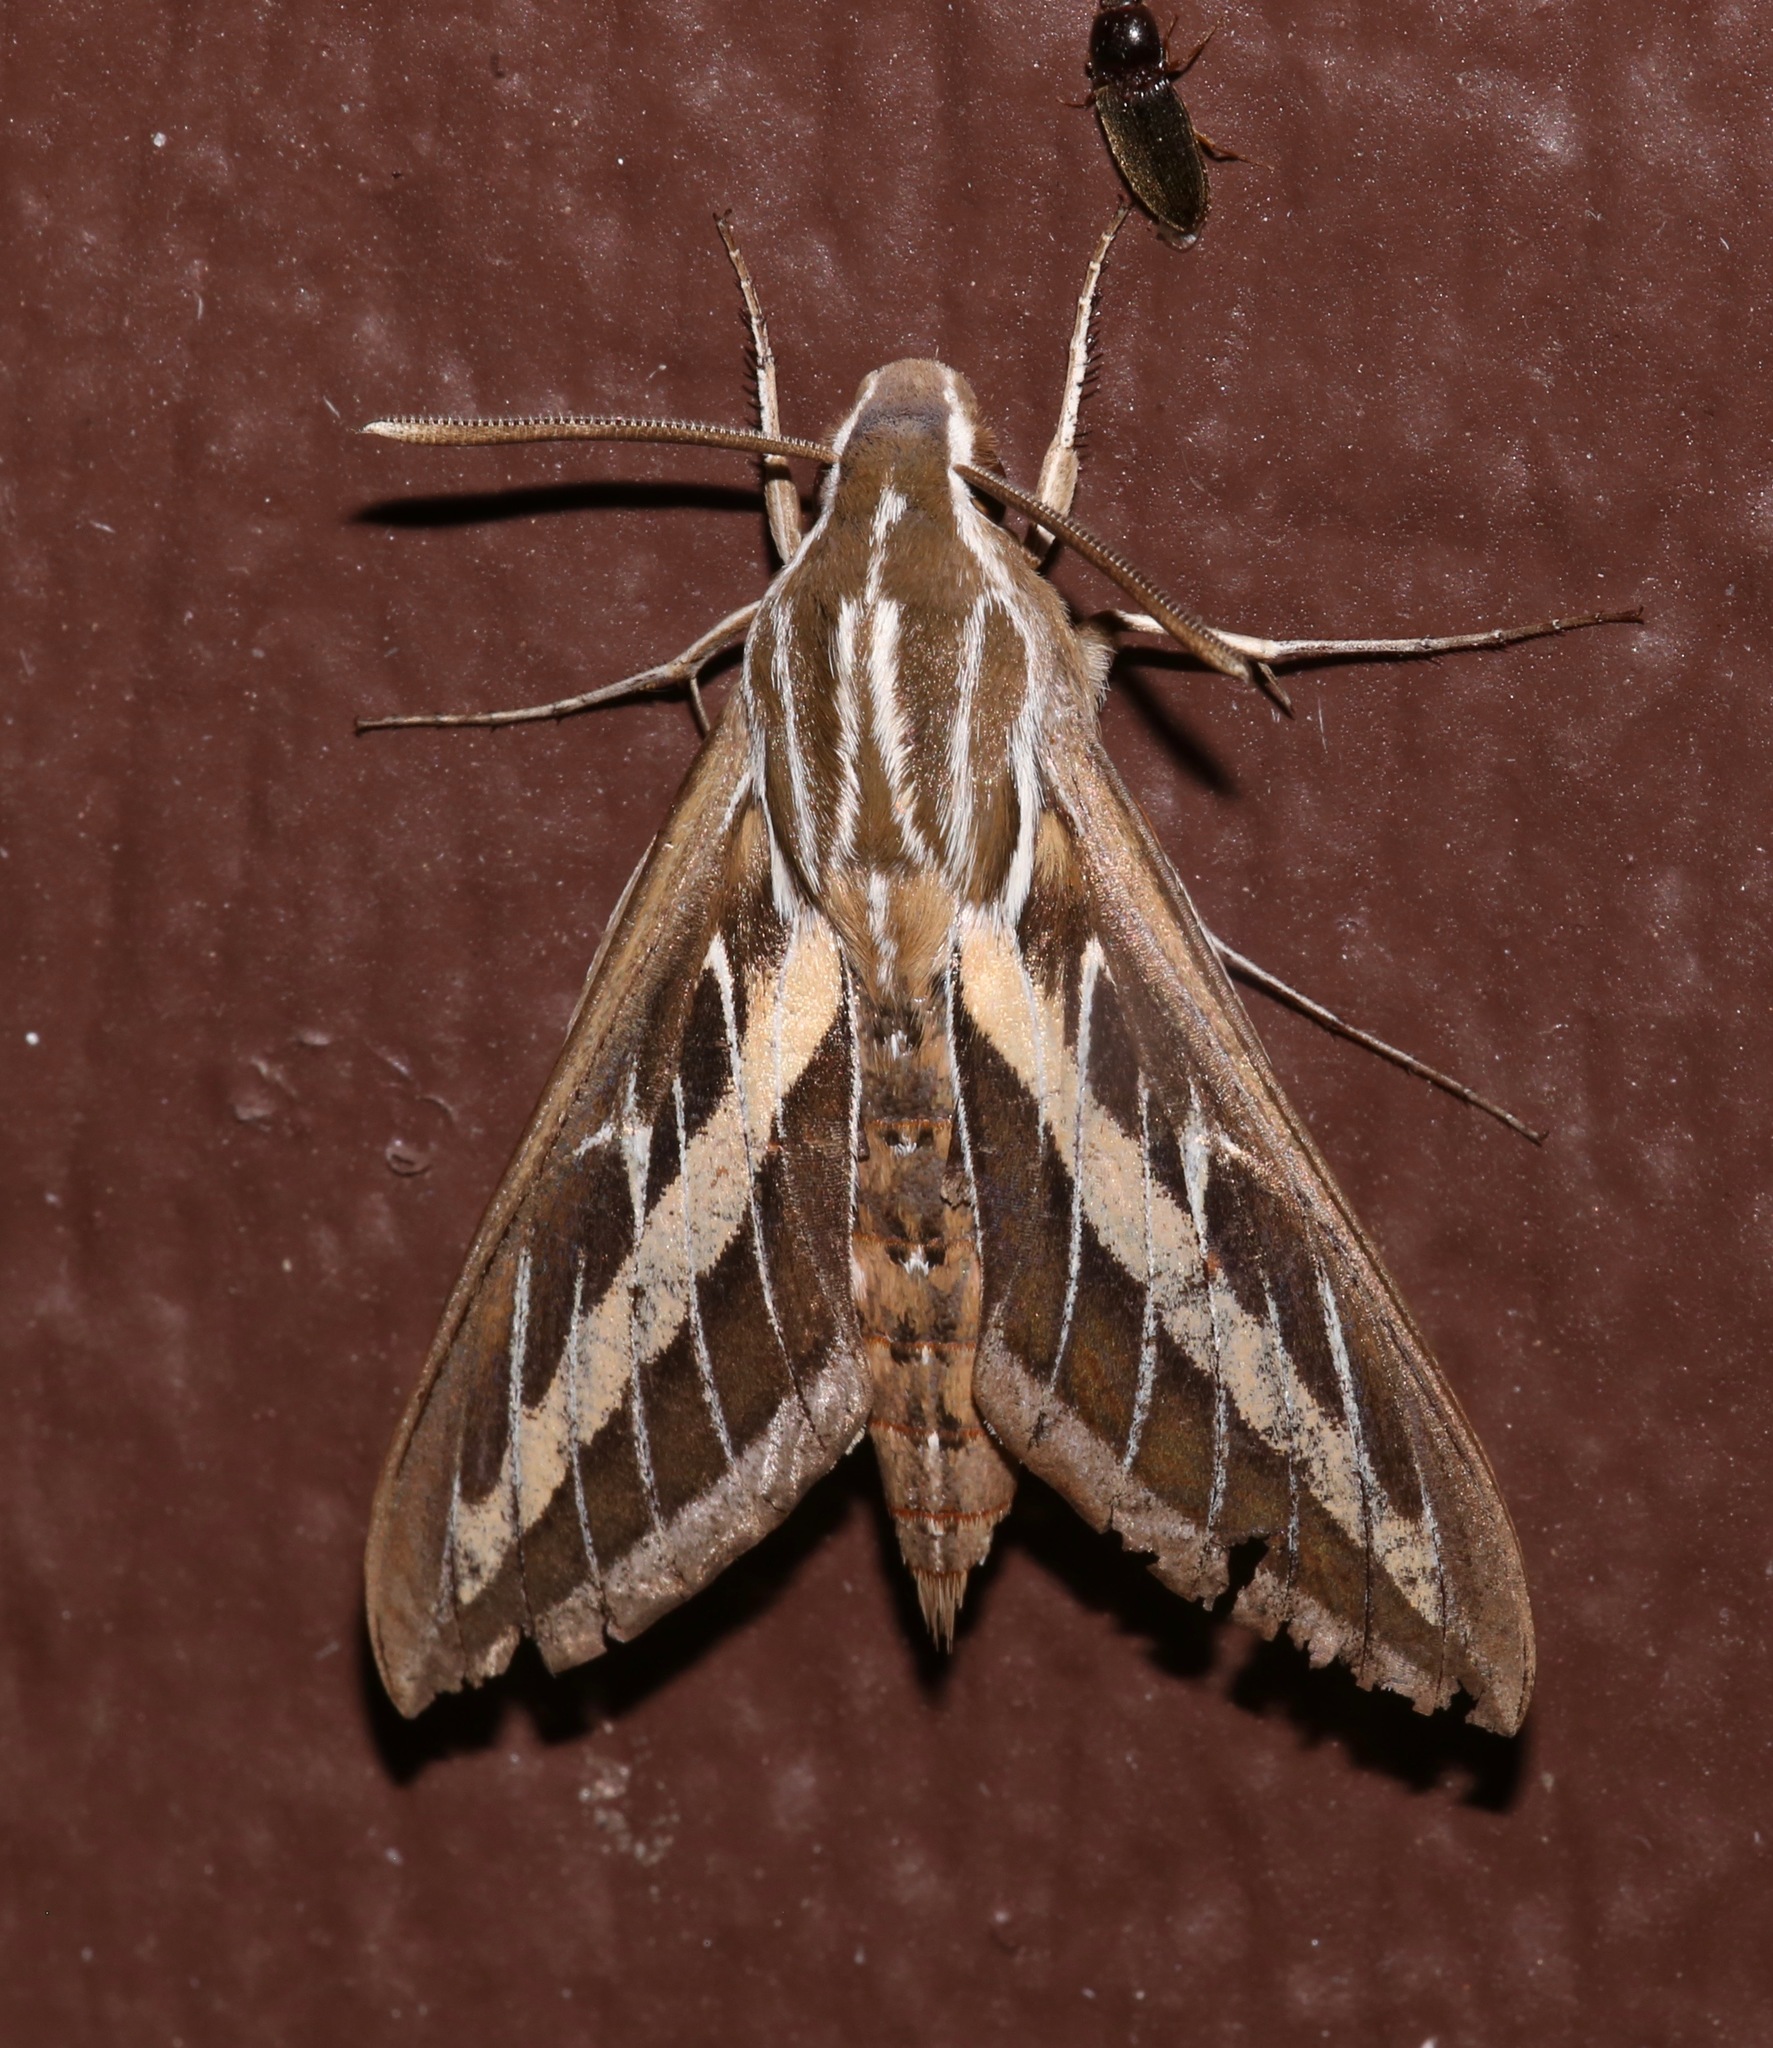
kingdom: Animalia
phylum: Arthropoda
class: Insecta
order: Lepidoptera
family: Sphingidae
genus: Hyles
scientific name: Hyles lineata
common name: White-lined sphinx
